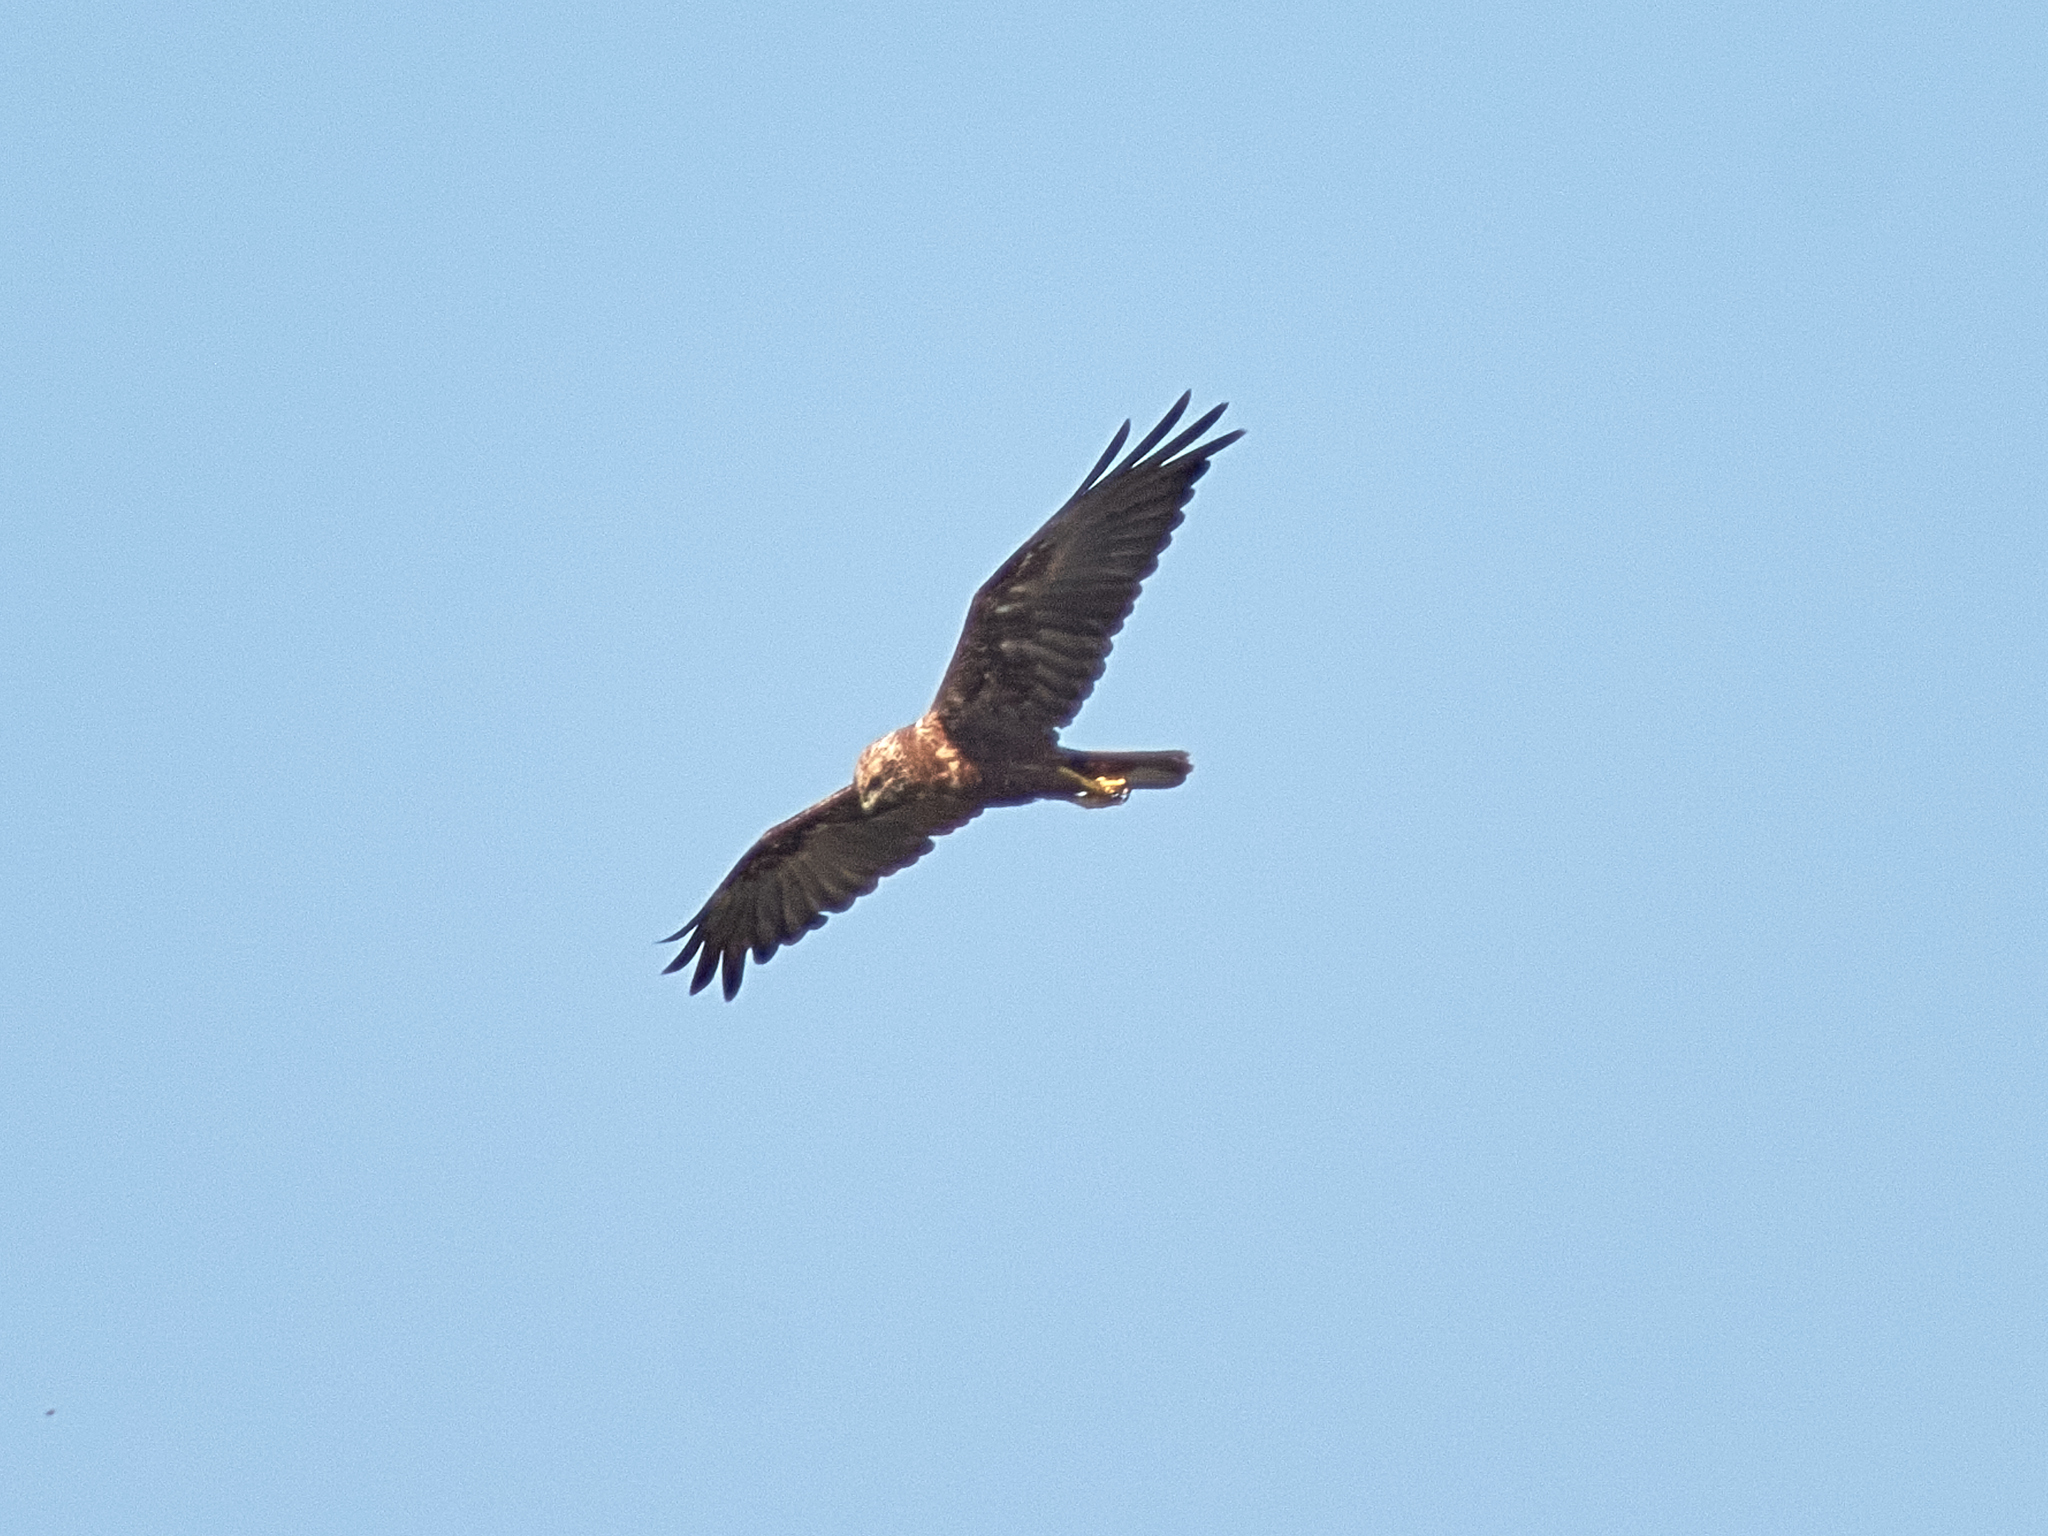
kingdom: Animalia
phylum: Chordata
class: Aves
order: Accipitriformes
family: Accipitridae
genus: Circus
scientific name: Circus aeruginosus
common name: Western marsh harrier
